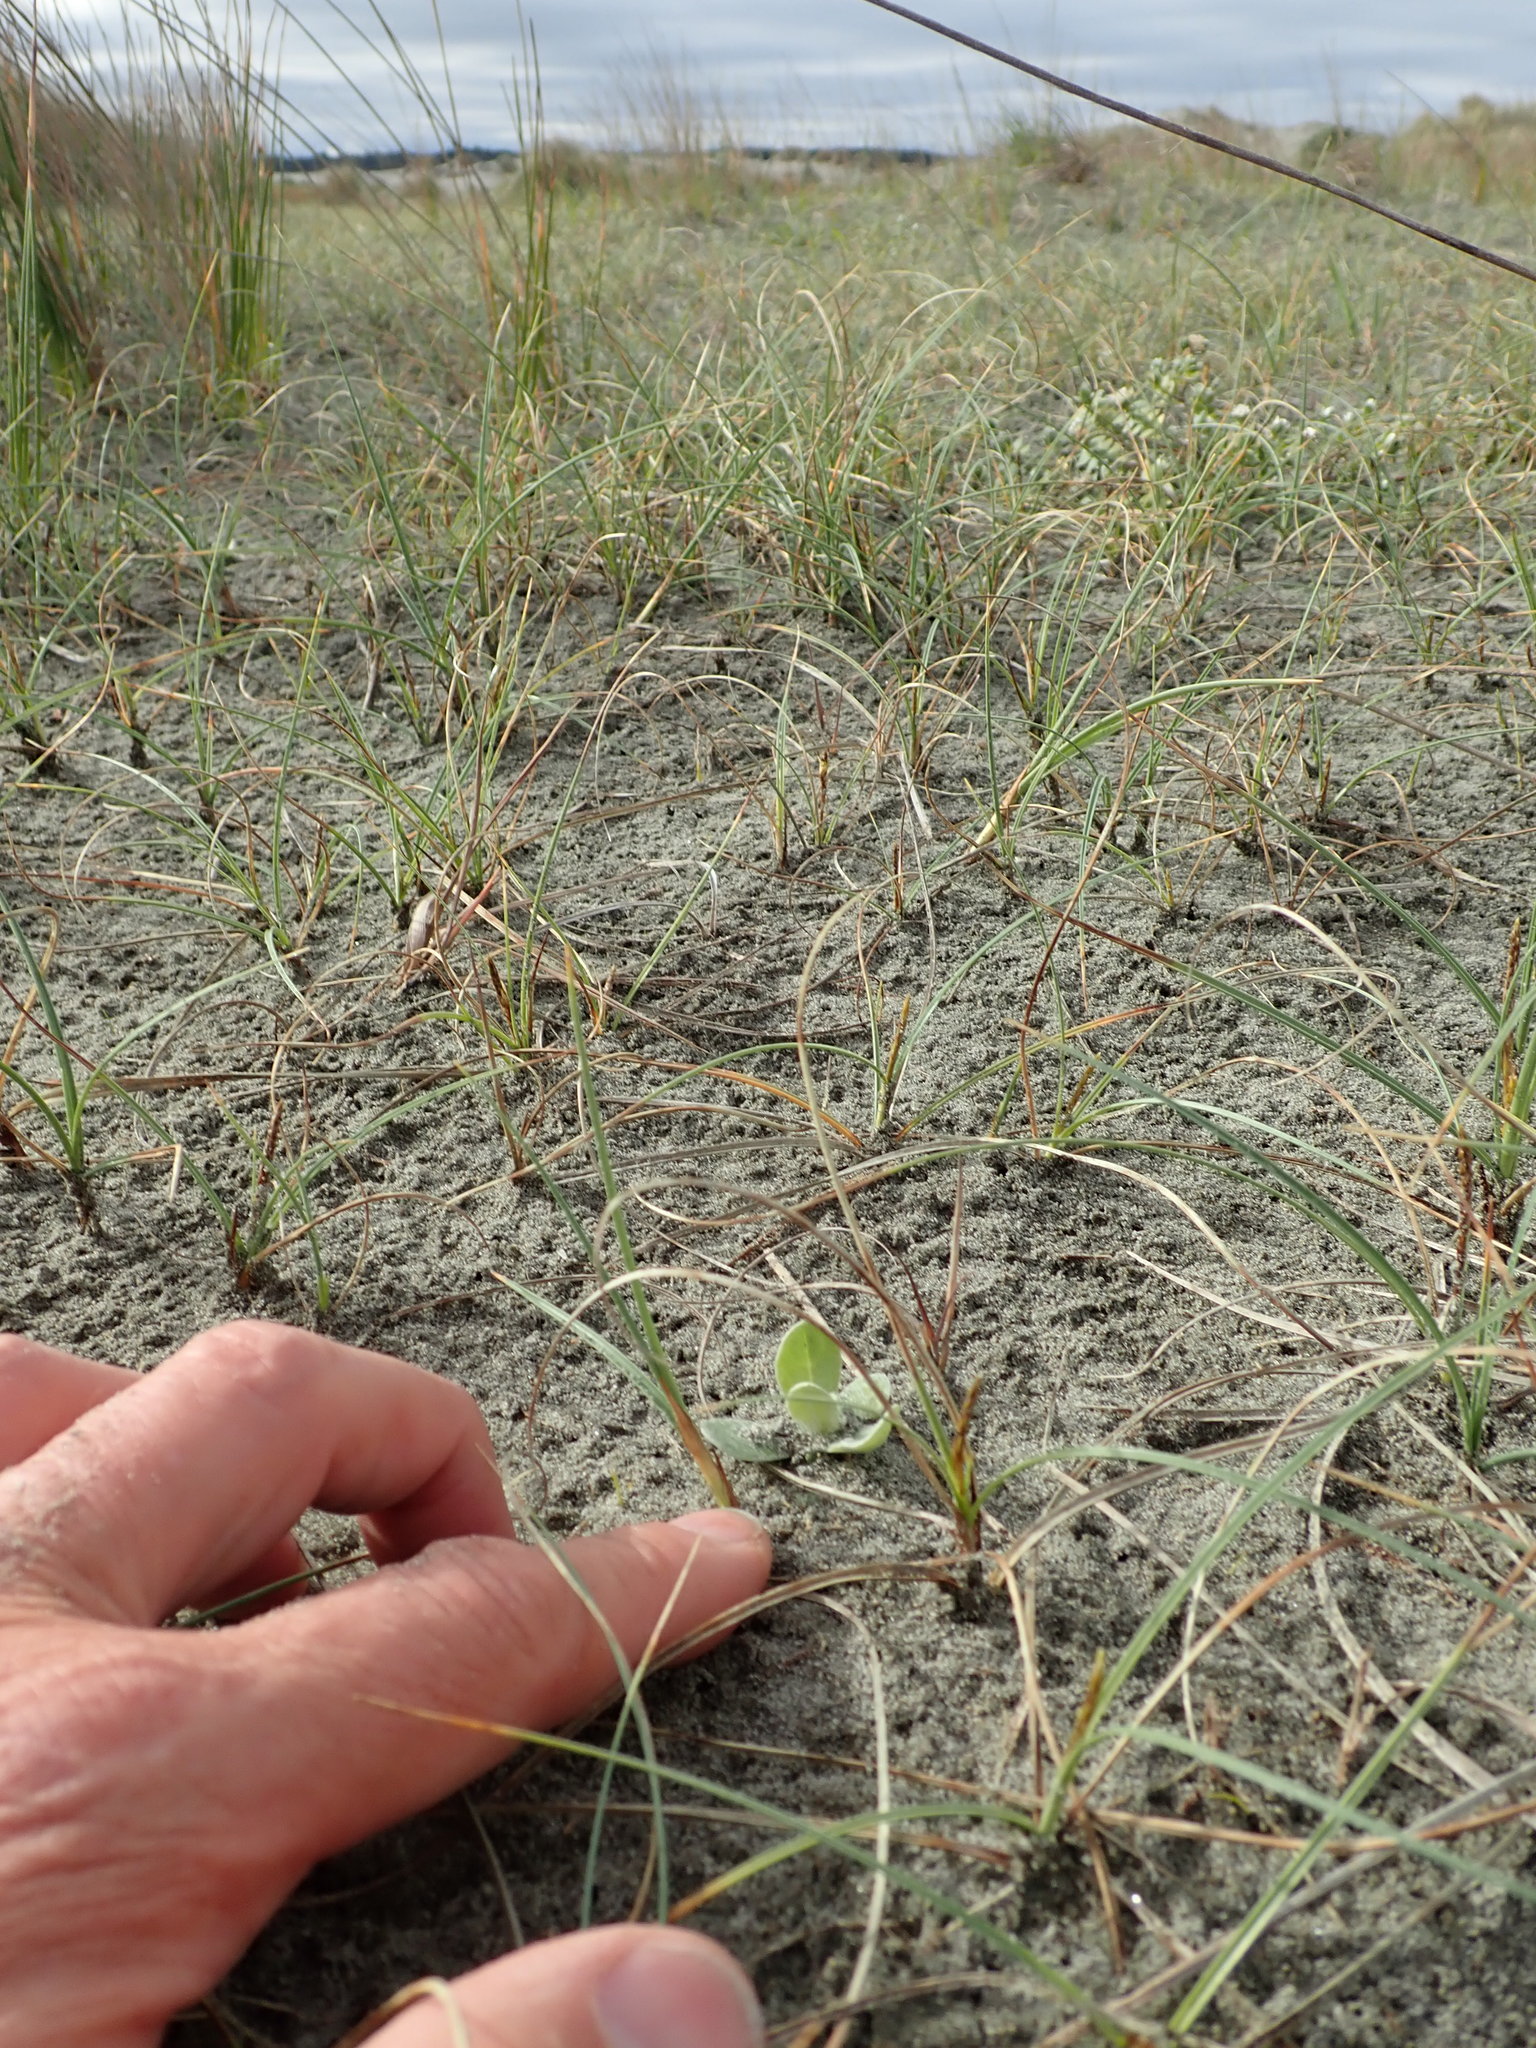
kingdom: Plantae
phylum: Tracheophyta
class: Magnoliopsida
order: Asterales
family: Asteraceae
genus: Helichrysum
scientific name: Helichrysum luteoalbum
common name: Daisy
